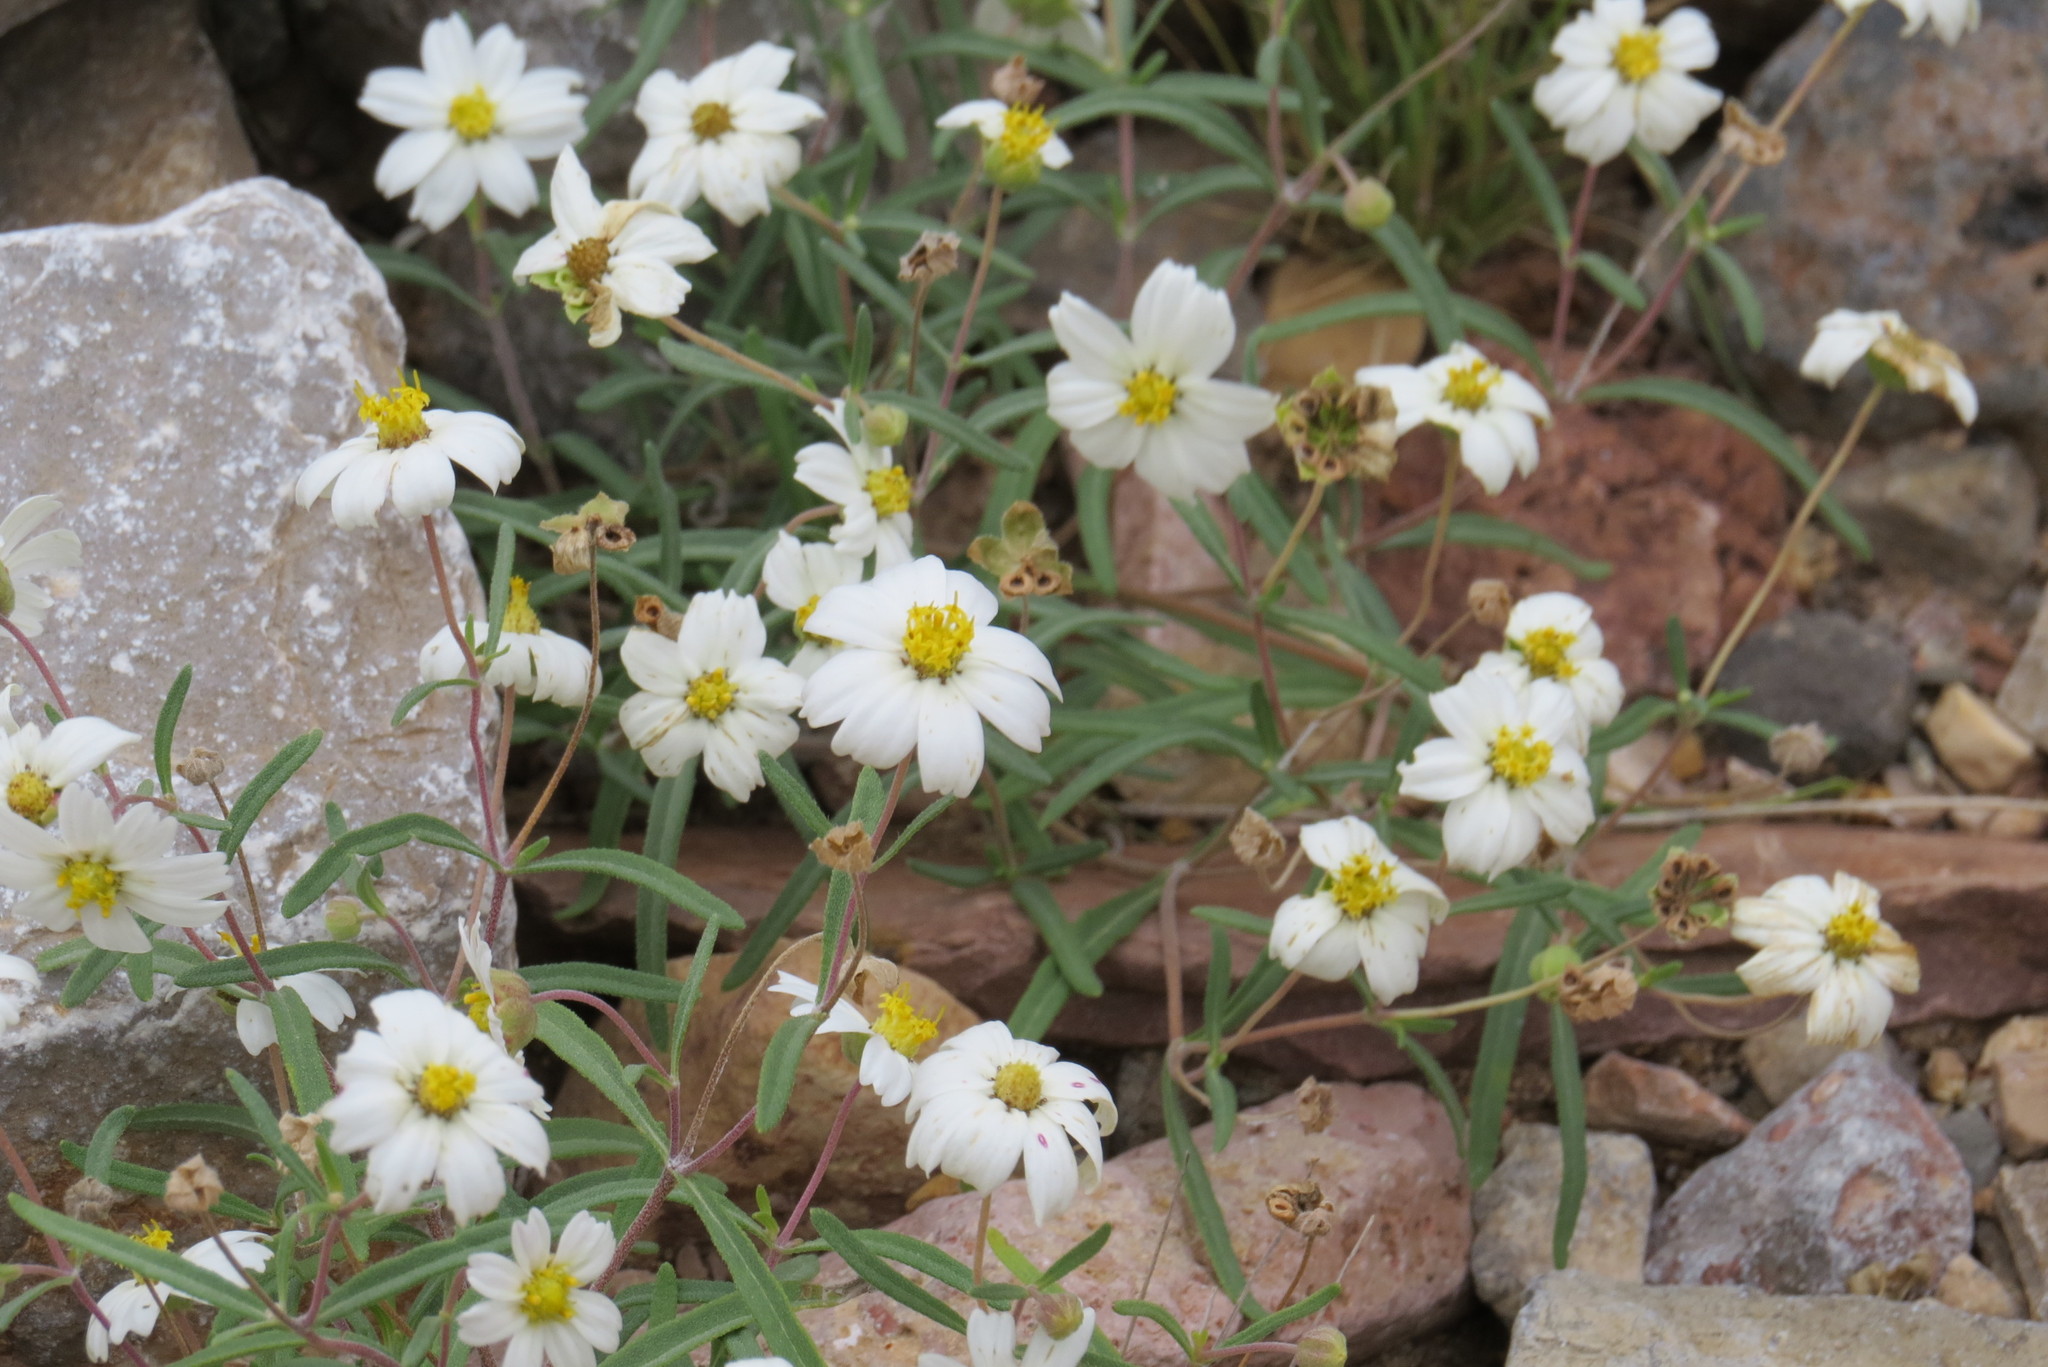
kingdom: Plantae
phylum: Tracheophyta
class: Magnoliopsida
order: Asterales
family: Asteraceae
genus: Melampodium
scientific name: Melampodium leucanthum
